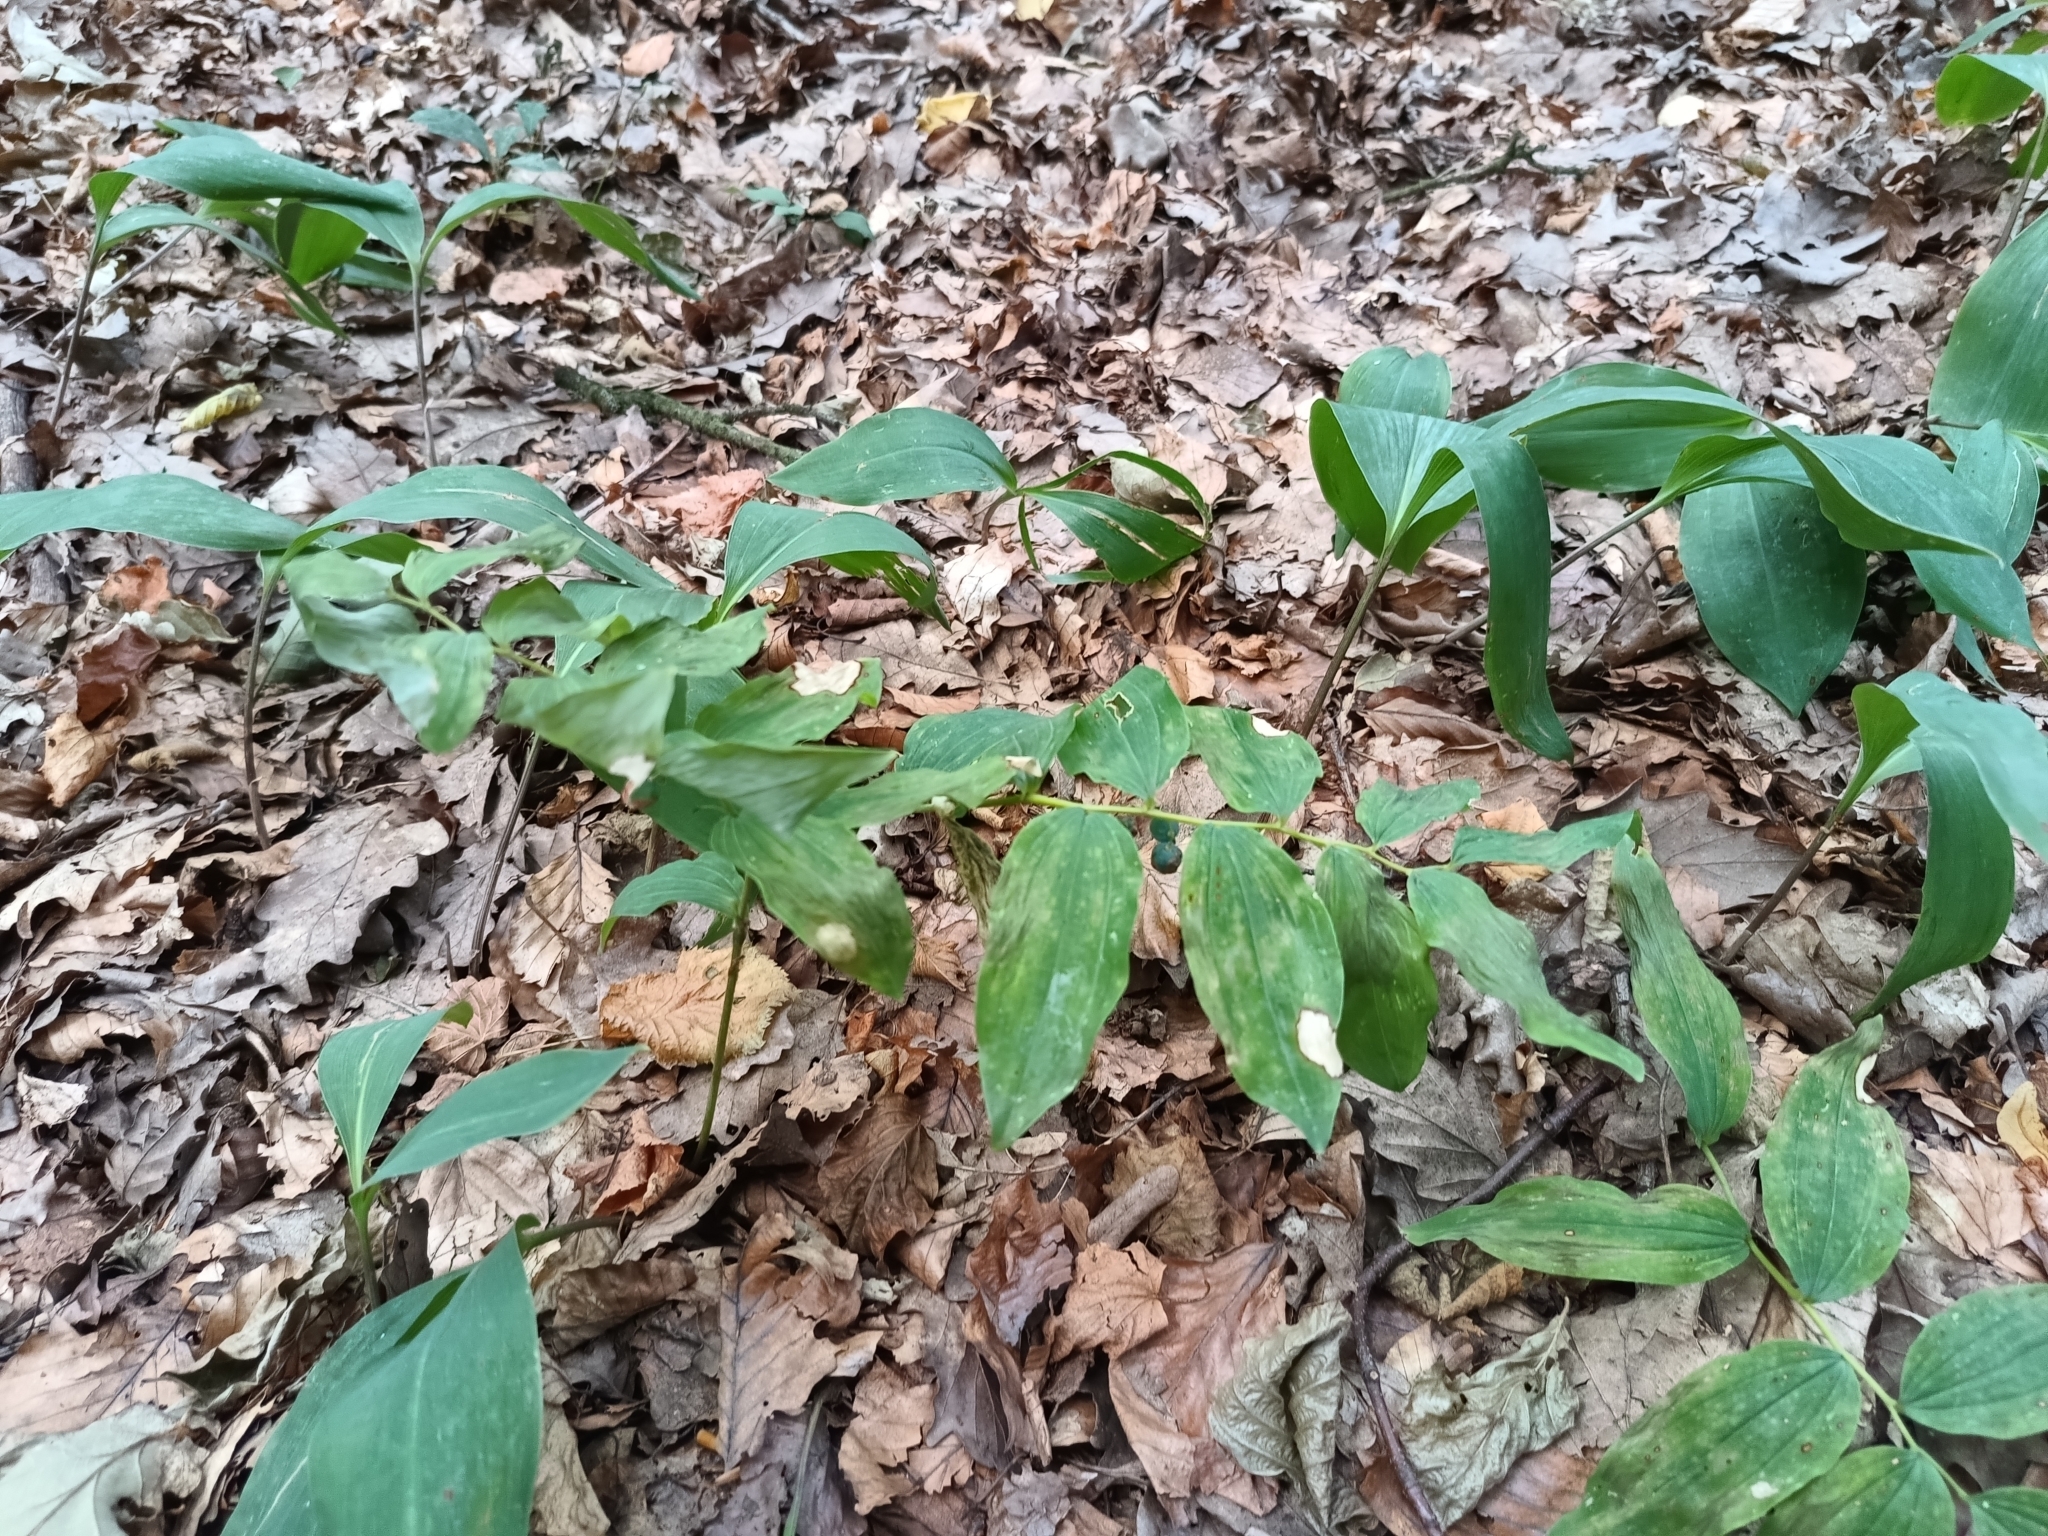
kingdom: Plantae
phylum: Tracheophyta
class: Liliopsida
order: Asparagales
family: Asparagaceae
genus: Polygonatum
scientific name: Polygonatum multiflorum
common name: Solomon's-seal
